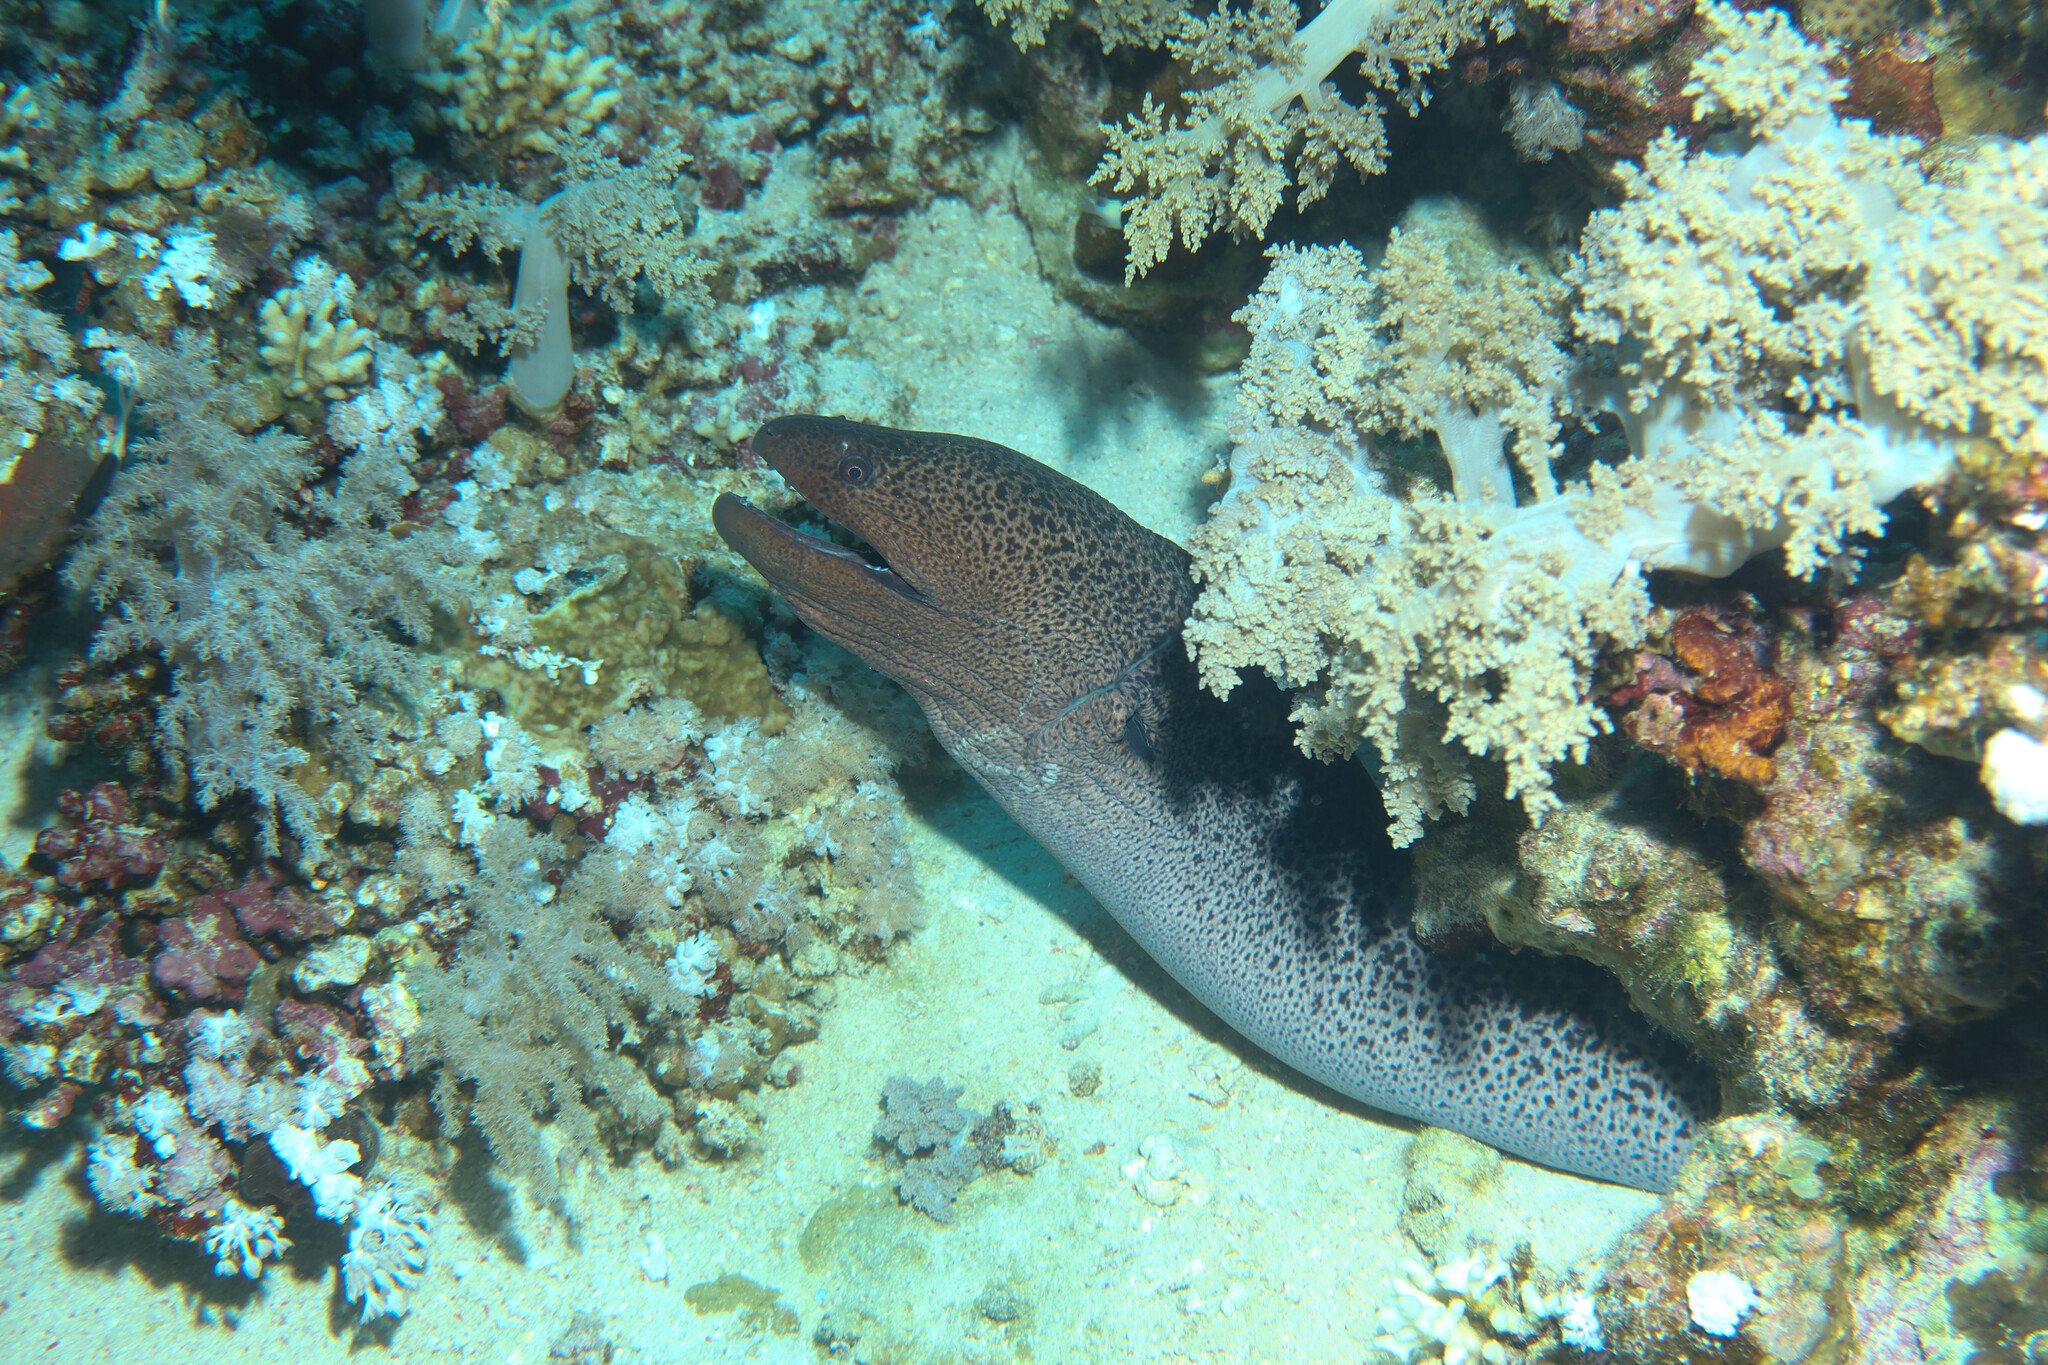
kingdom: Animalia
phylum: Chordata
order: Anguilliformes
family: Muraenidae
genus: Gymnothorax
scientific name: Gymnothorax javanicus
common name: Giant moray
